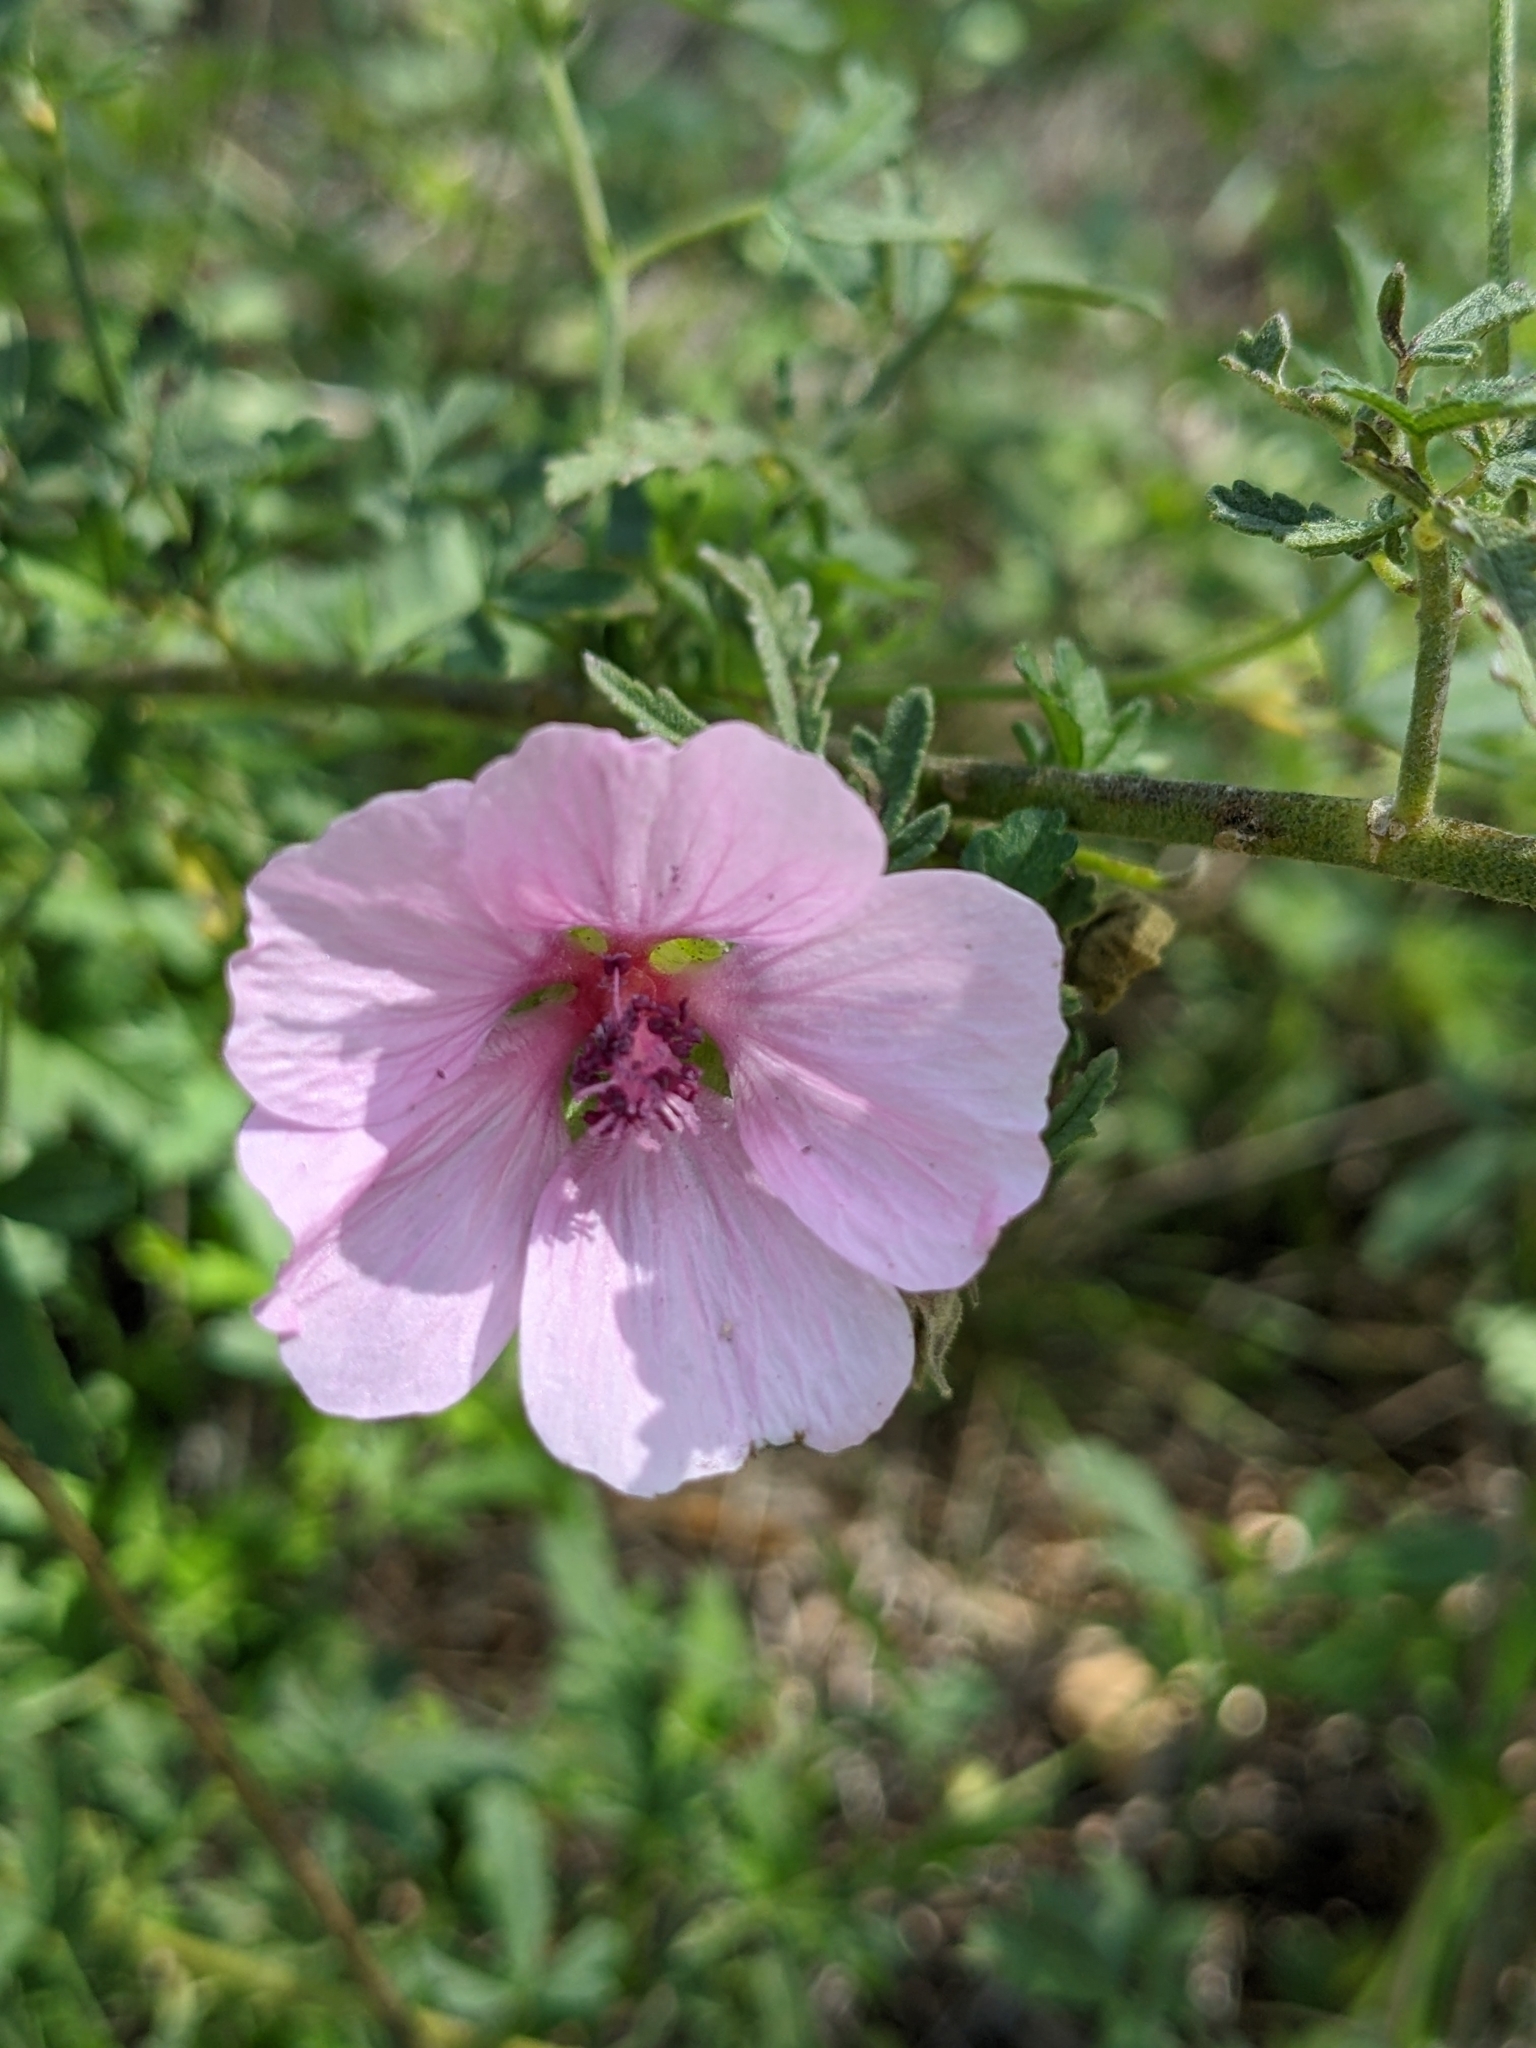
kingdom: Plantae
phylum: Tracheophyta
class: Magnoliopsida
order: Malvales
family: Malvaceae
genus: Althaea
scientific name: Althaea cannabina
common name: Palm-leaf marshmallow
